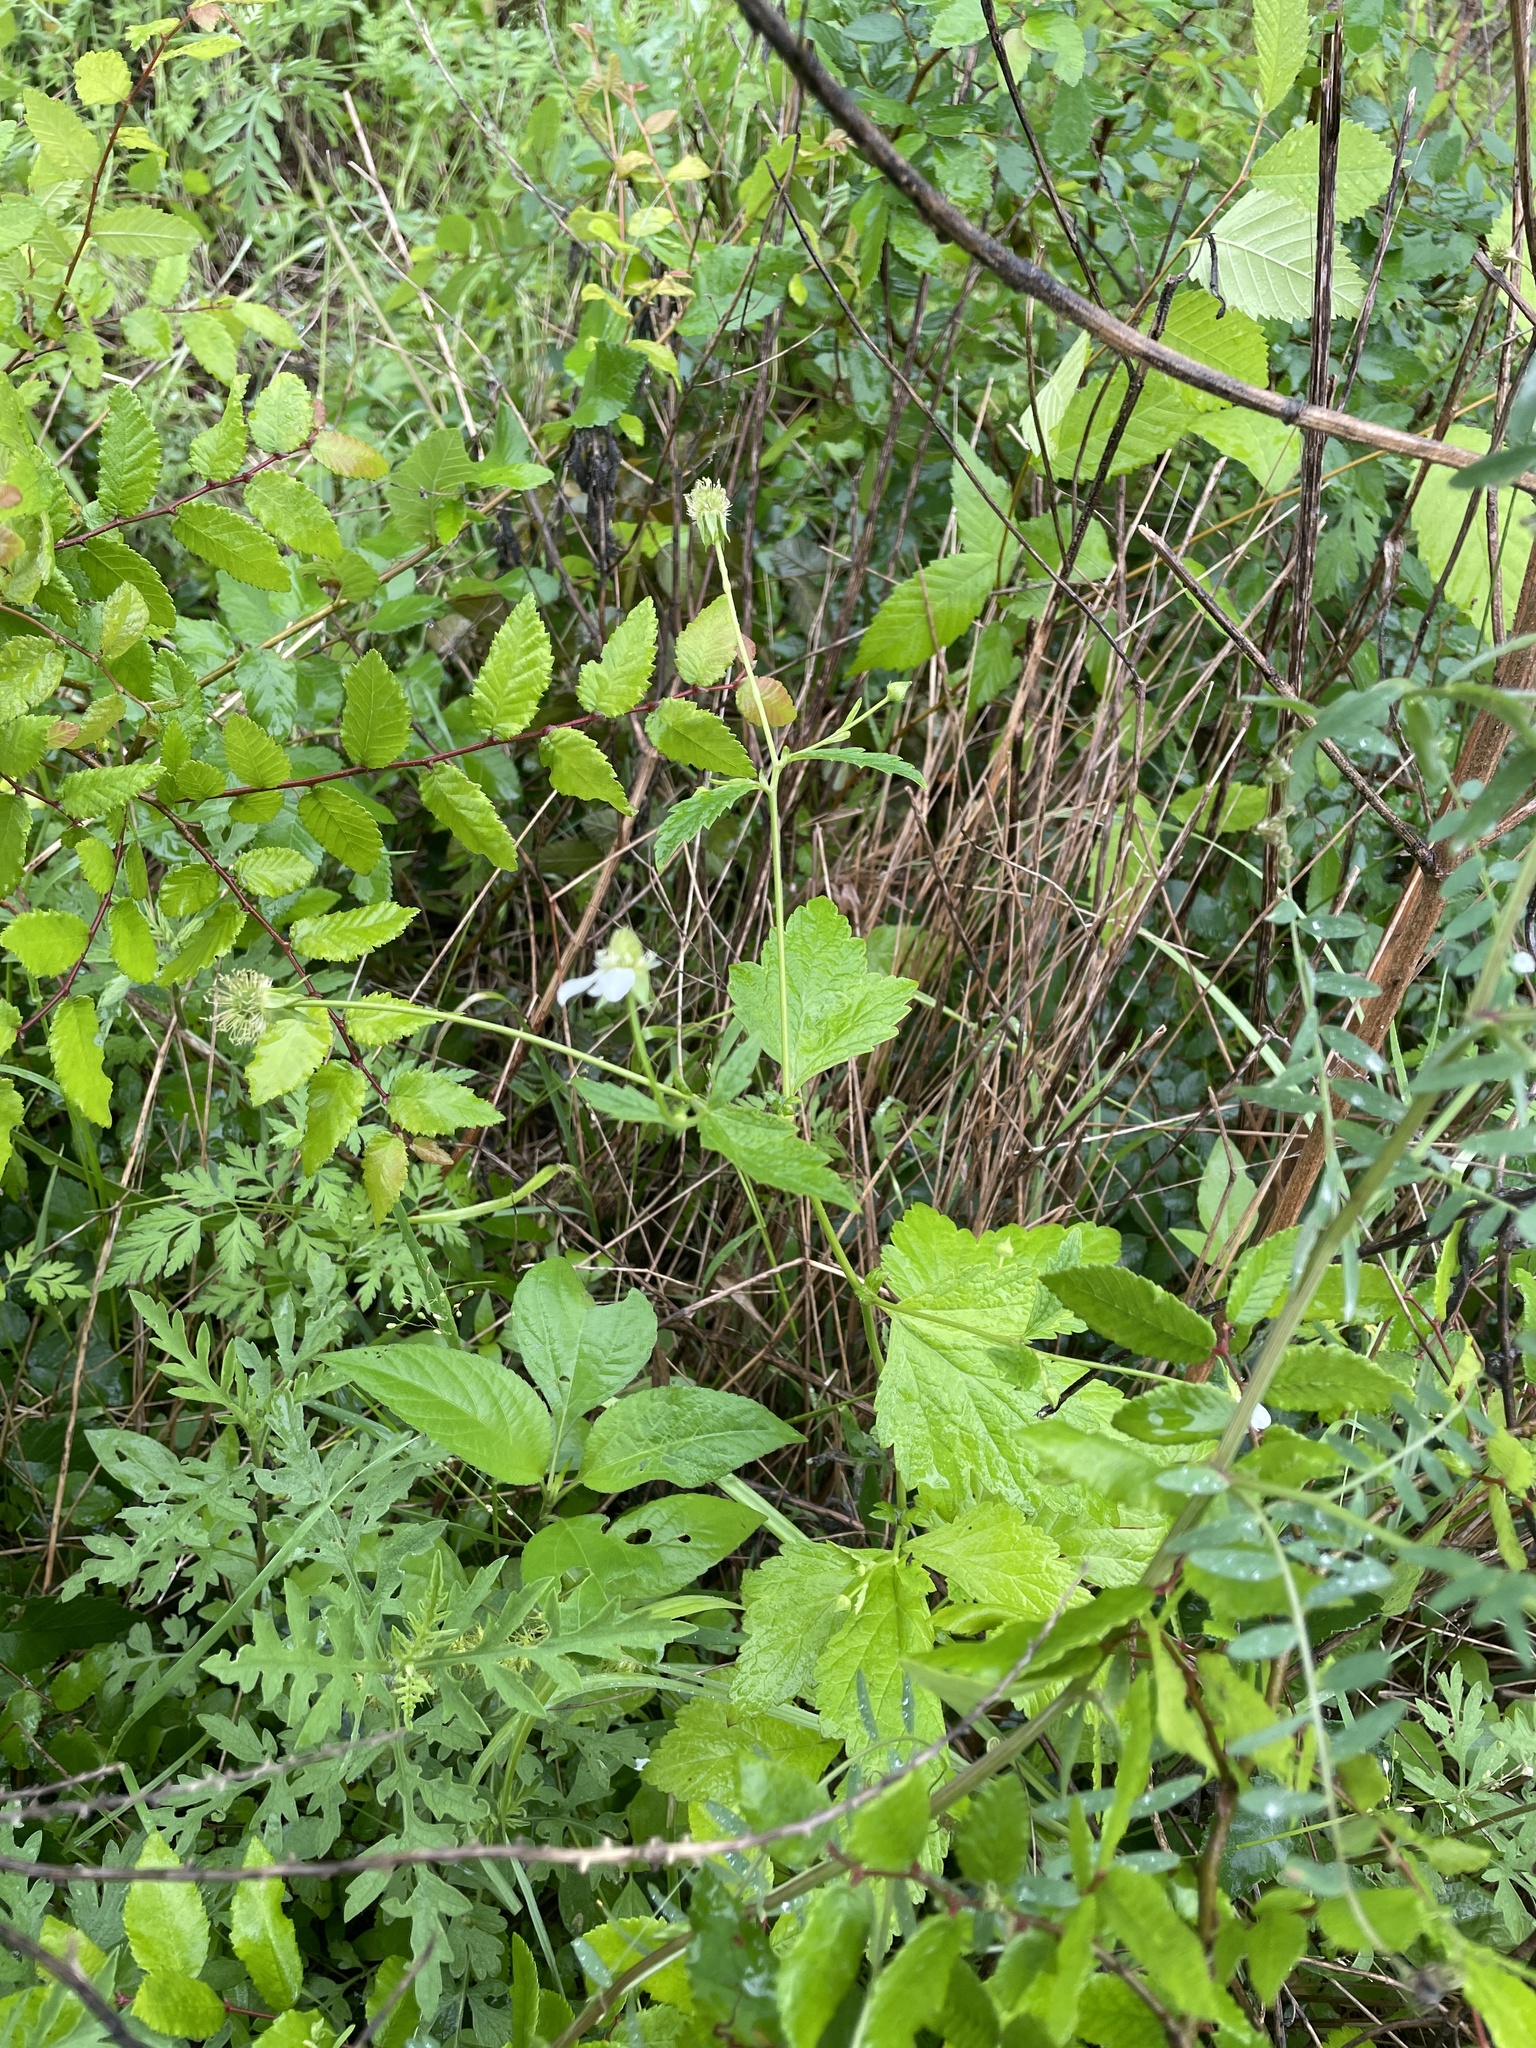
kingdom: Plantae
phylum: Tracheophyta
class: Magnoliopsida
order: Rosales
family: Rosaceae
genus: Geum
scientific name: Geum canadense
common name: White avens
